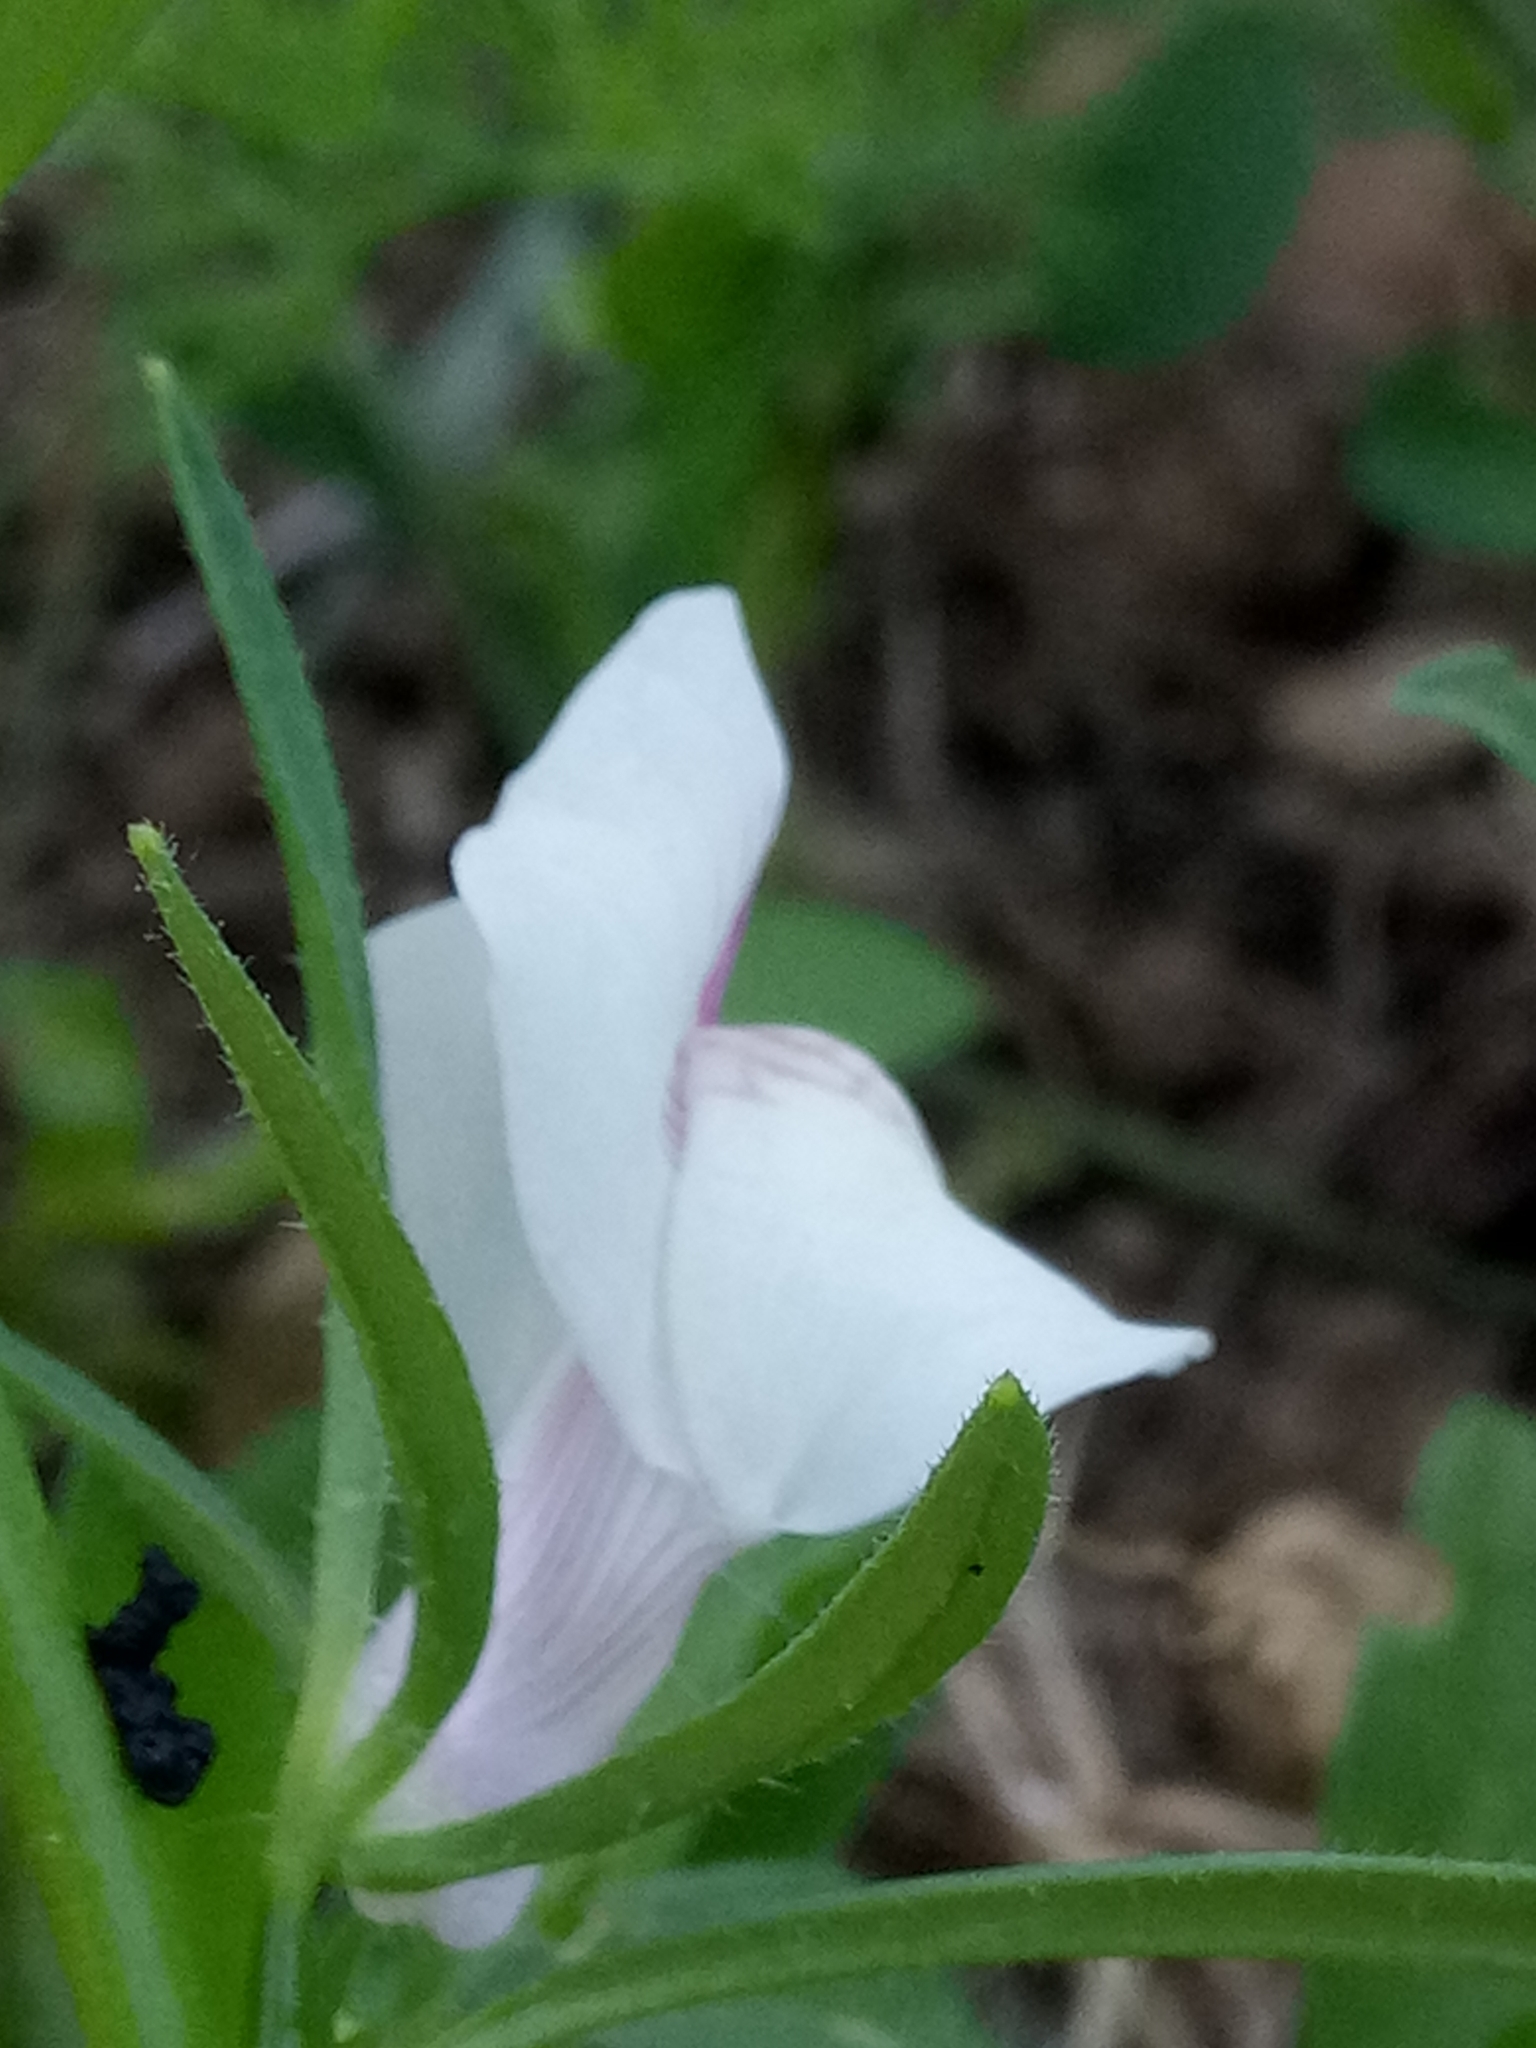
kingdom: Plantae
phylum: Tracheophyta
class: Magnoliopsida
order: Lamiales
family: Plantaginaceae
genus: Misopates
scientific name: Misopates calycinum
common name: Pale weasel's-snout
